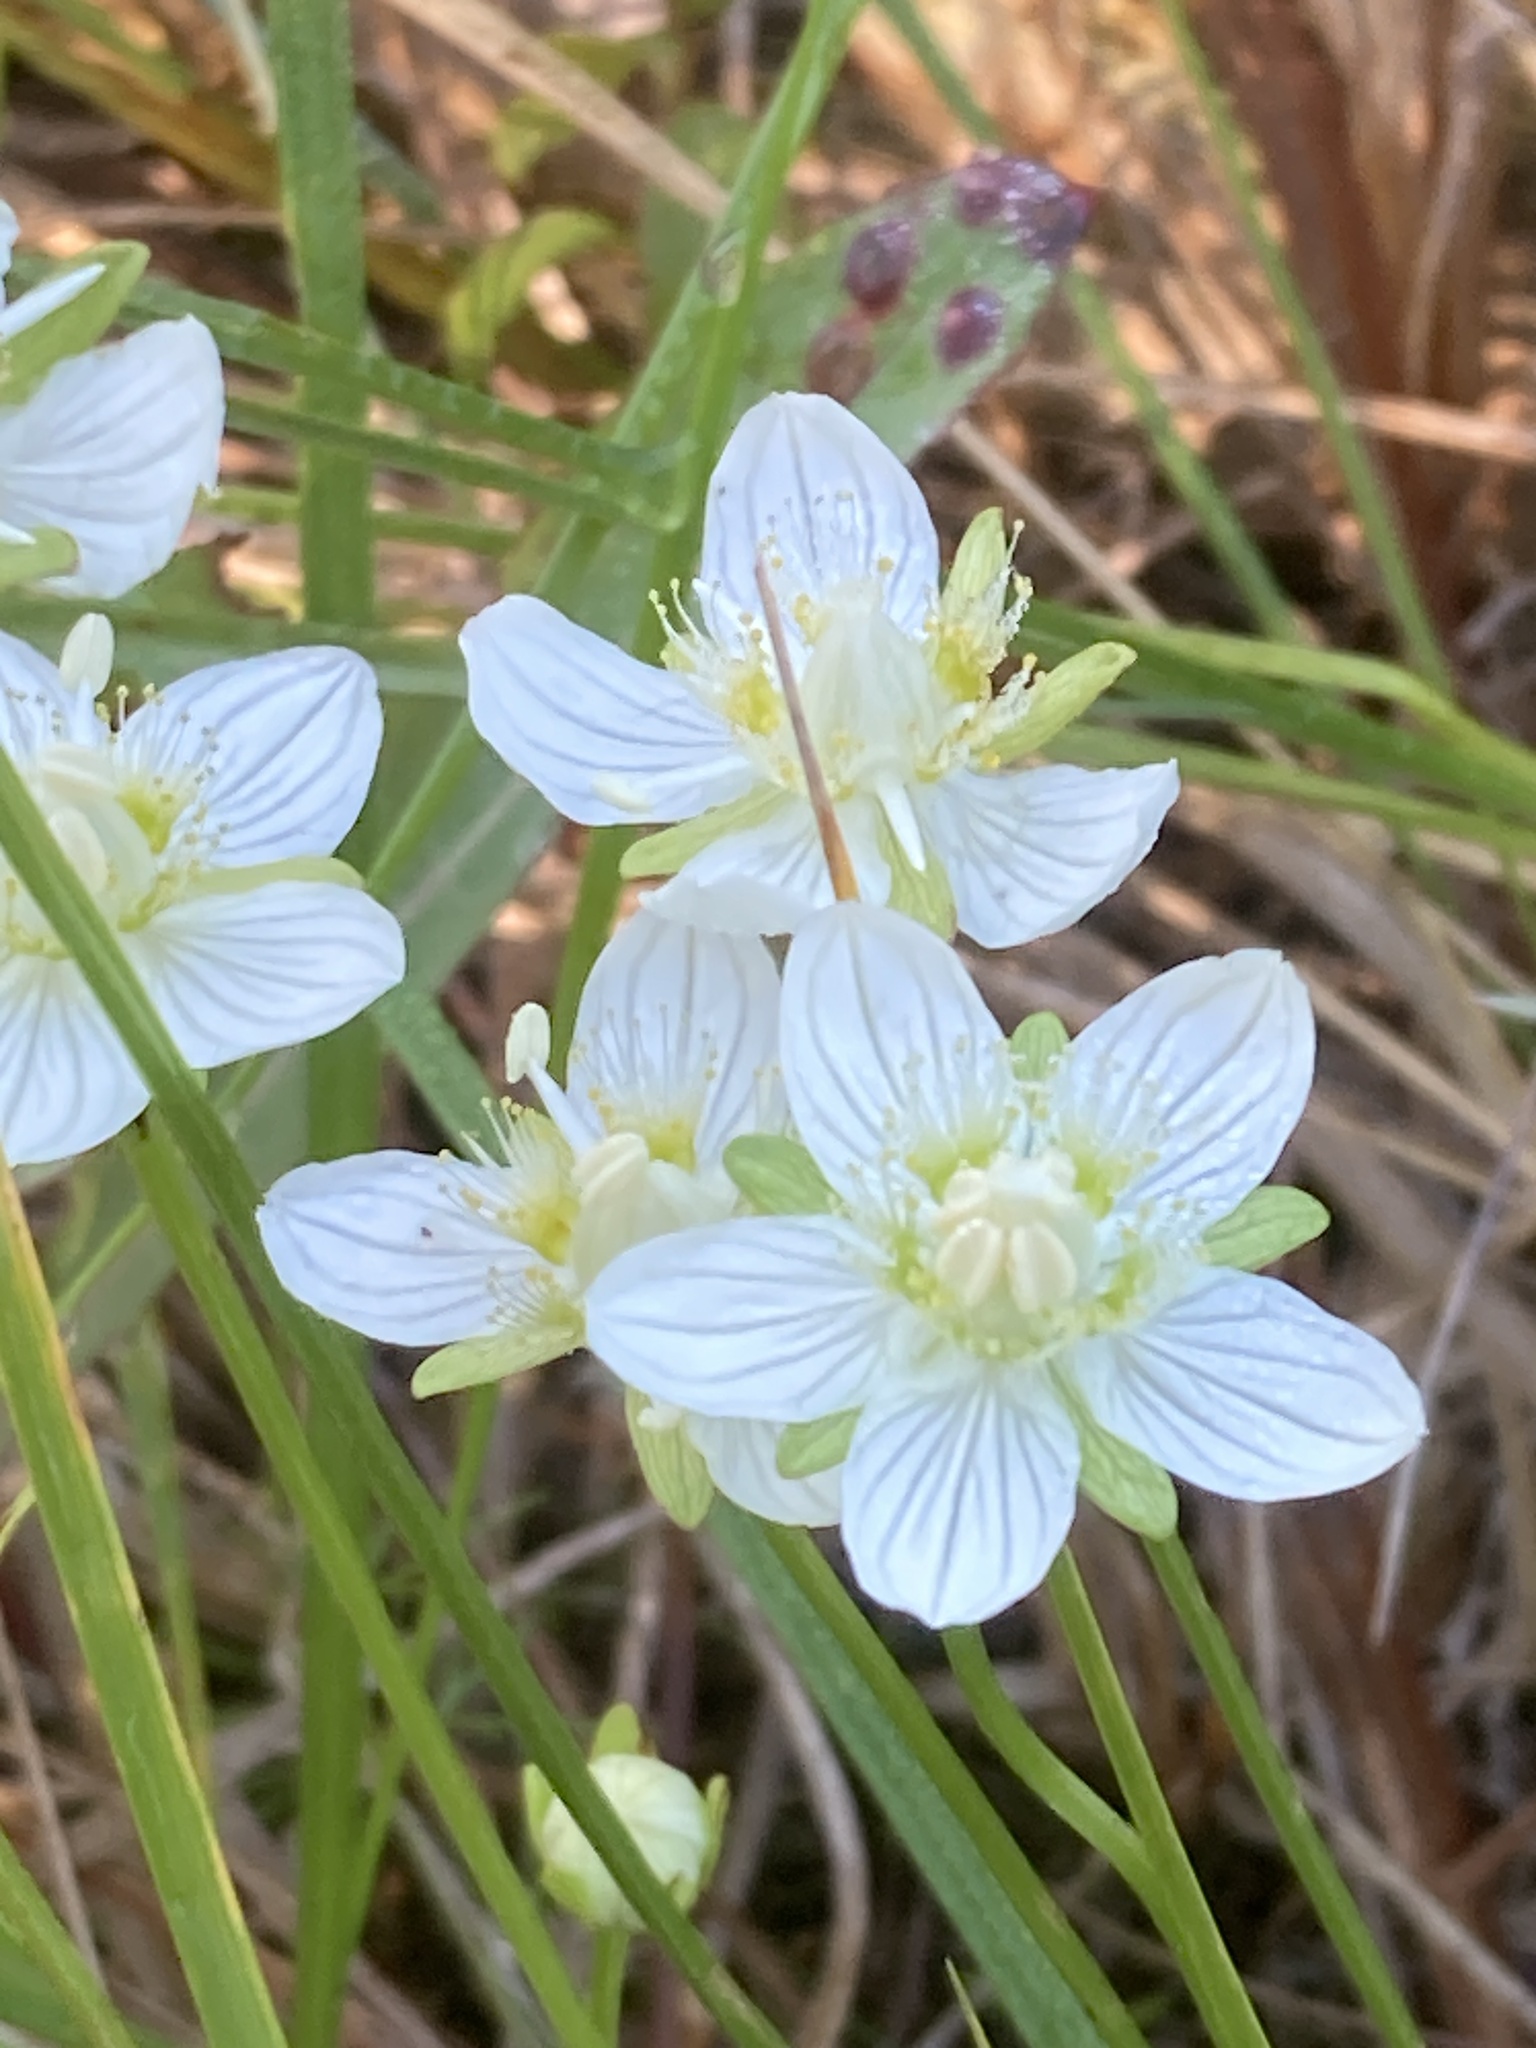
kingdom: Plantae
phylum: Tracheophyta
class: Magnoliopsida
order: Celastrales
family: Parnassiaceae
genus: Parnassia
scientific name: Parnassia palustris
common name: Grass-of-parnassus
